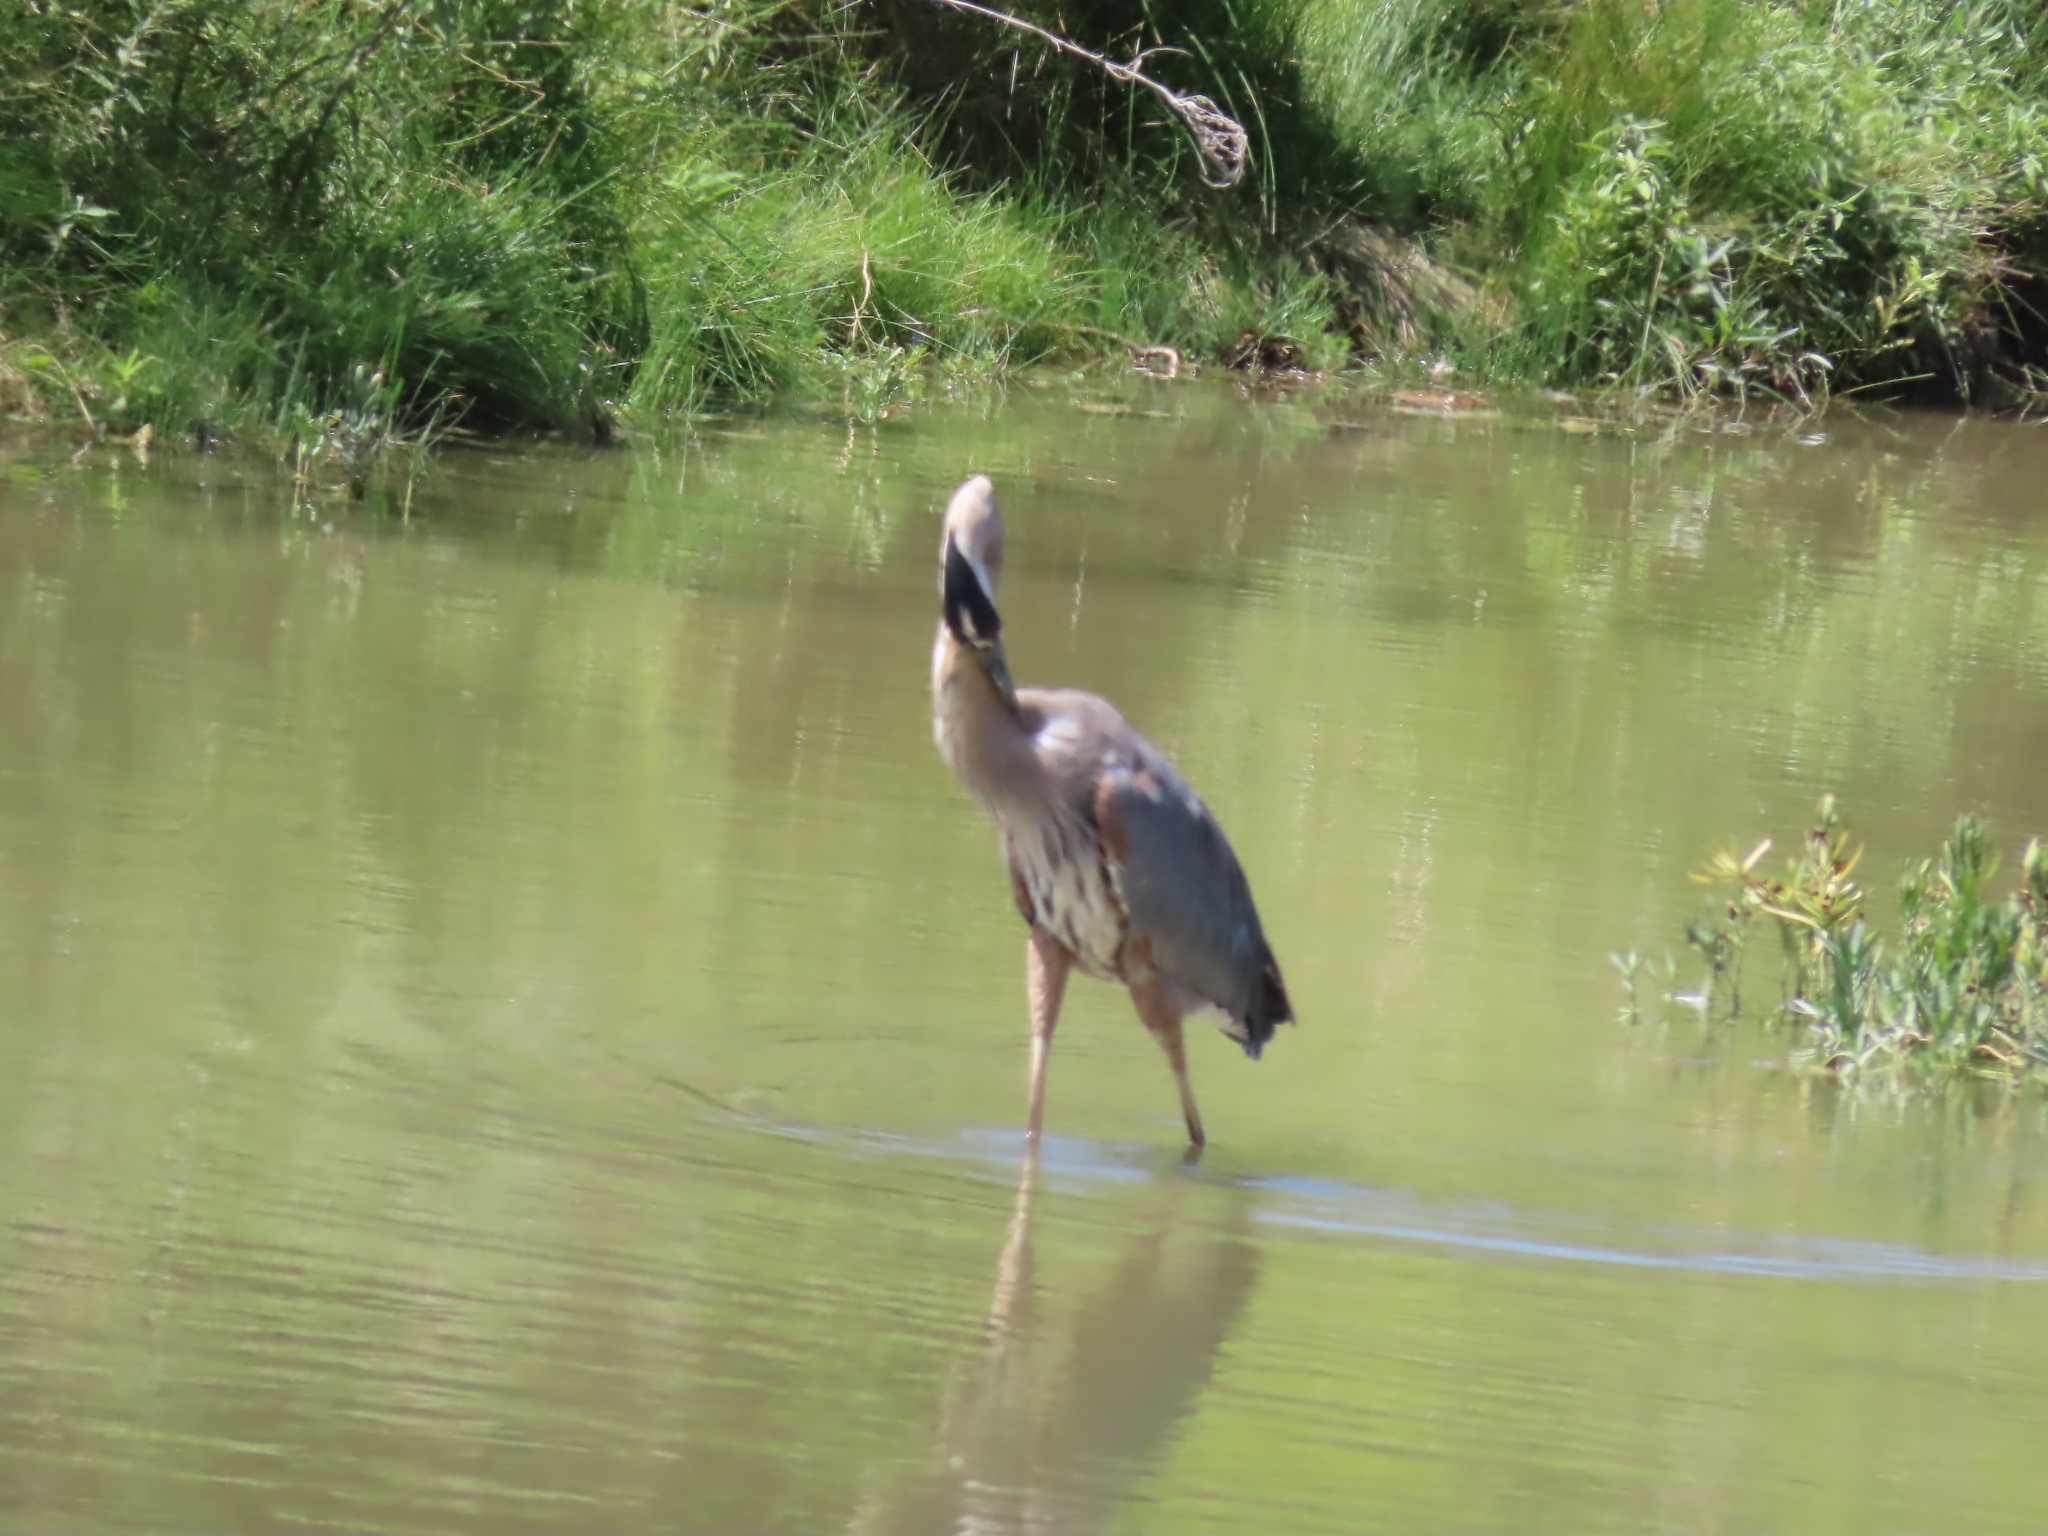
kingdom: Animalia
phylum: Chordata
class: Aves
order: Pelecaniformes
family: Ardeidae
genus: Ardea
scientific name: Ardea herodias
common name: Great blue heron
